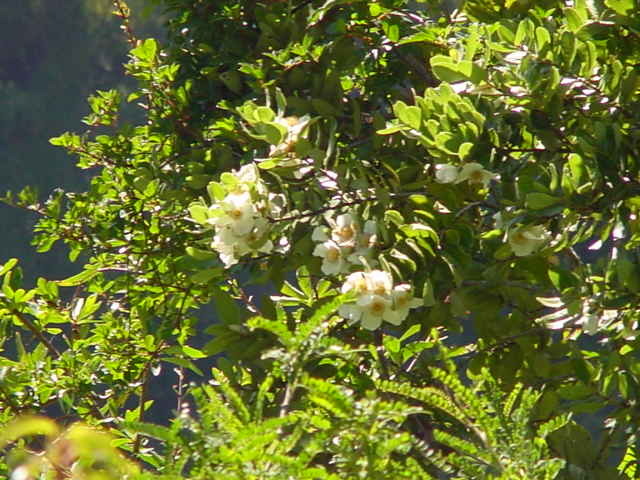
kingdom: Plantae
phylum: Tracheophyta
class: Magnoliopsida
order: Oxalidales
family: Cunoniaceae
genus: Eucryphia
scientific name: Eucryphia cordifolia
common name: Ulmo
